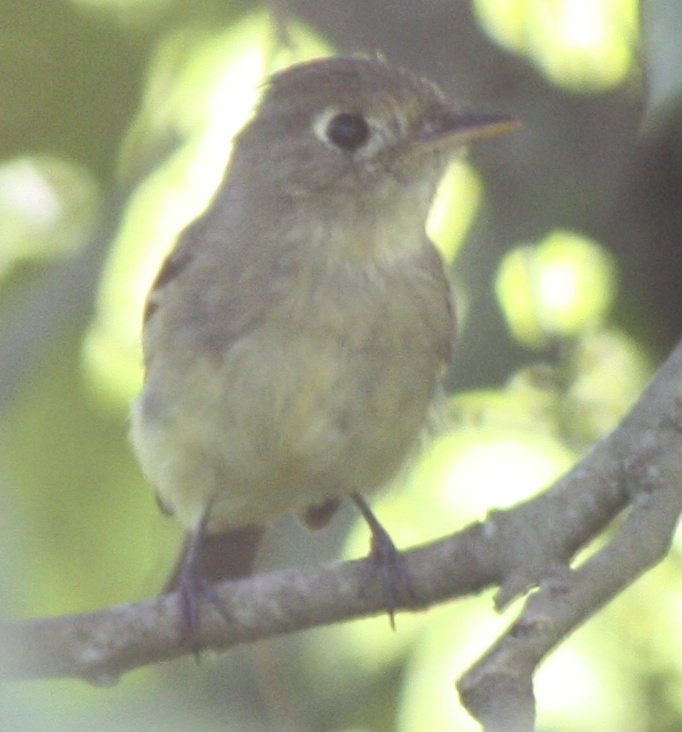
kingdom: Animalia
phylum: Chordata
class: Aves
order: Passeriformes
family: Tyrannidae
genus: Empidonax
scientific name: Empidonax
